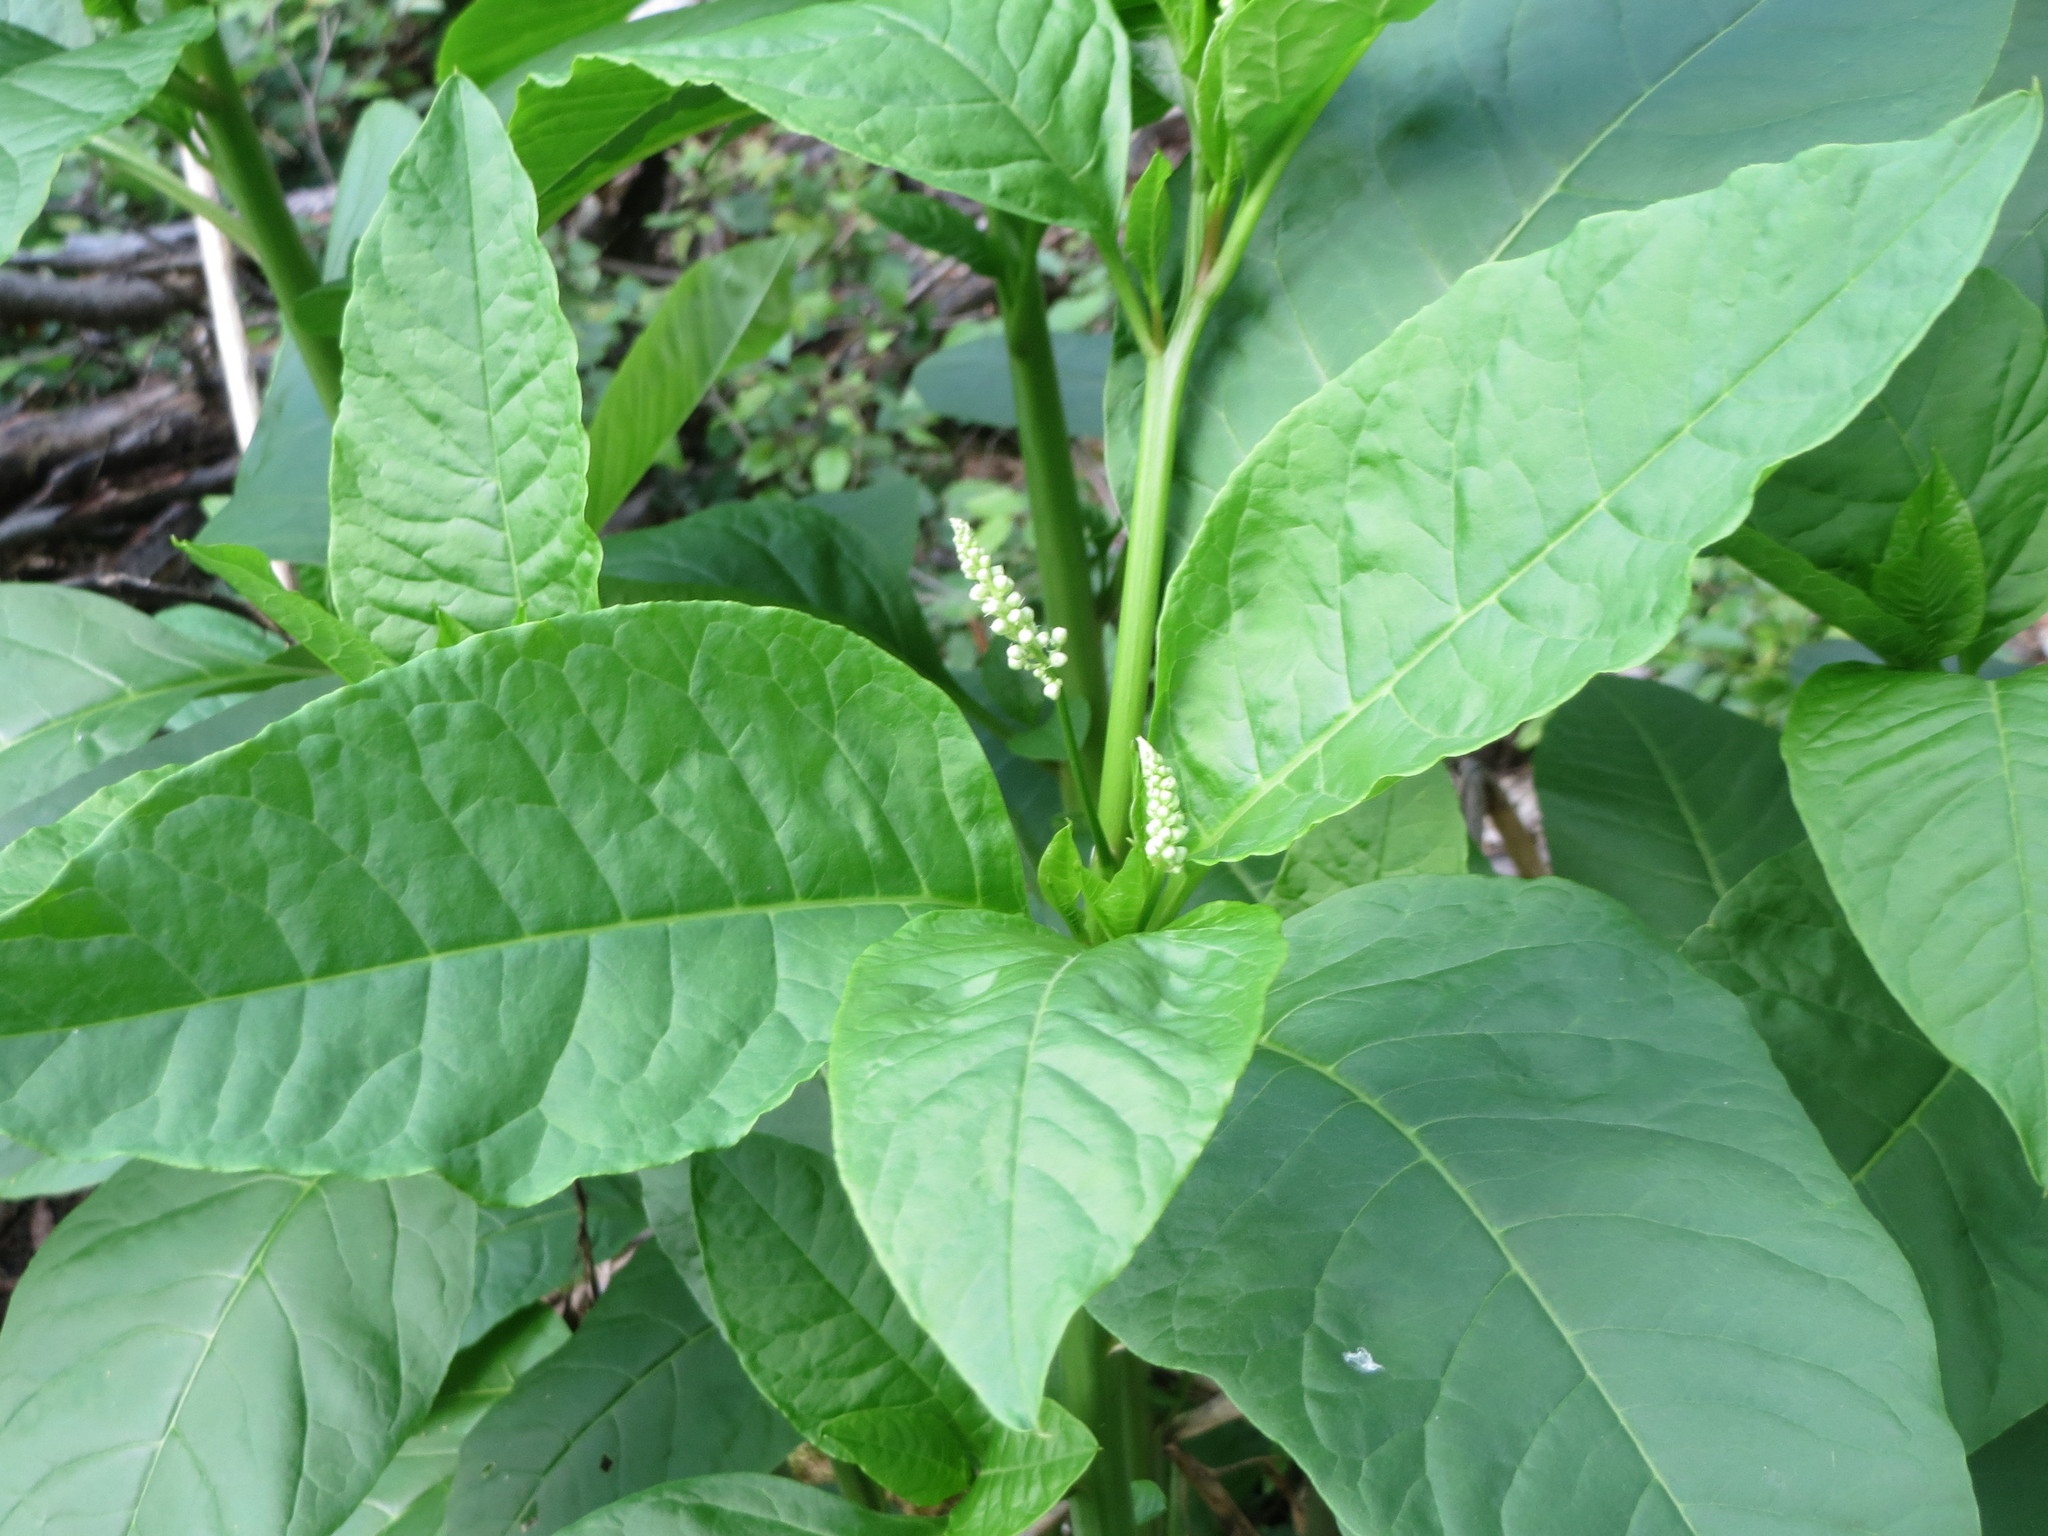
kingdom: Plantae
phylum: Tracheophyta
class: Magnoliopsida
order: Caryophyllales
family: Phytolaccaceae
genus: Phytolacca
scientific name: Phytolacca americana
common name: American pokeweed
